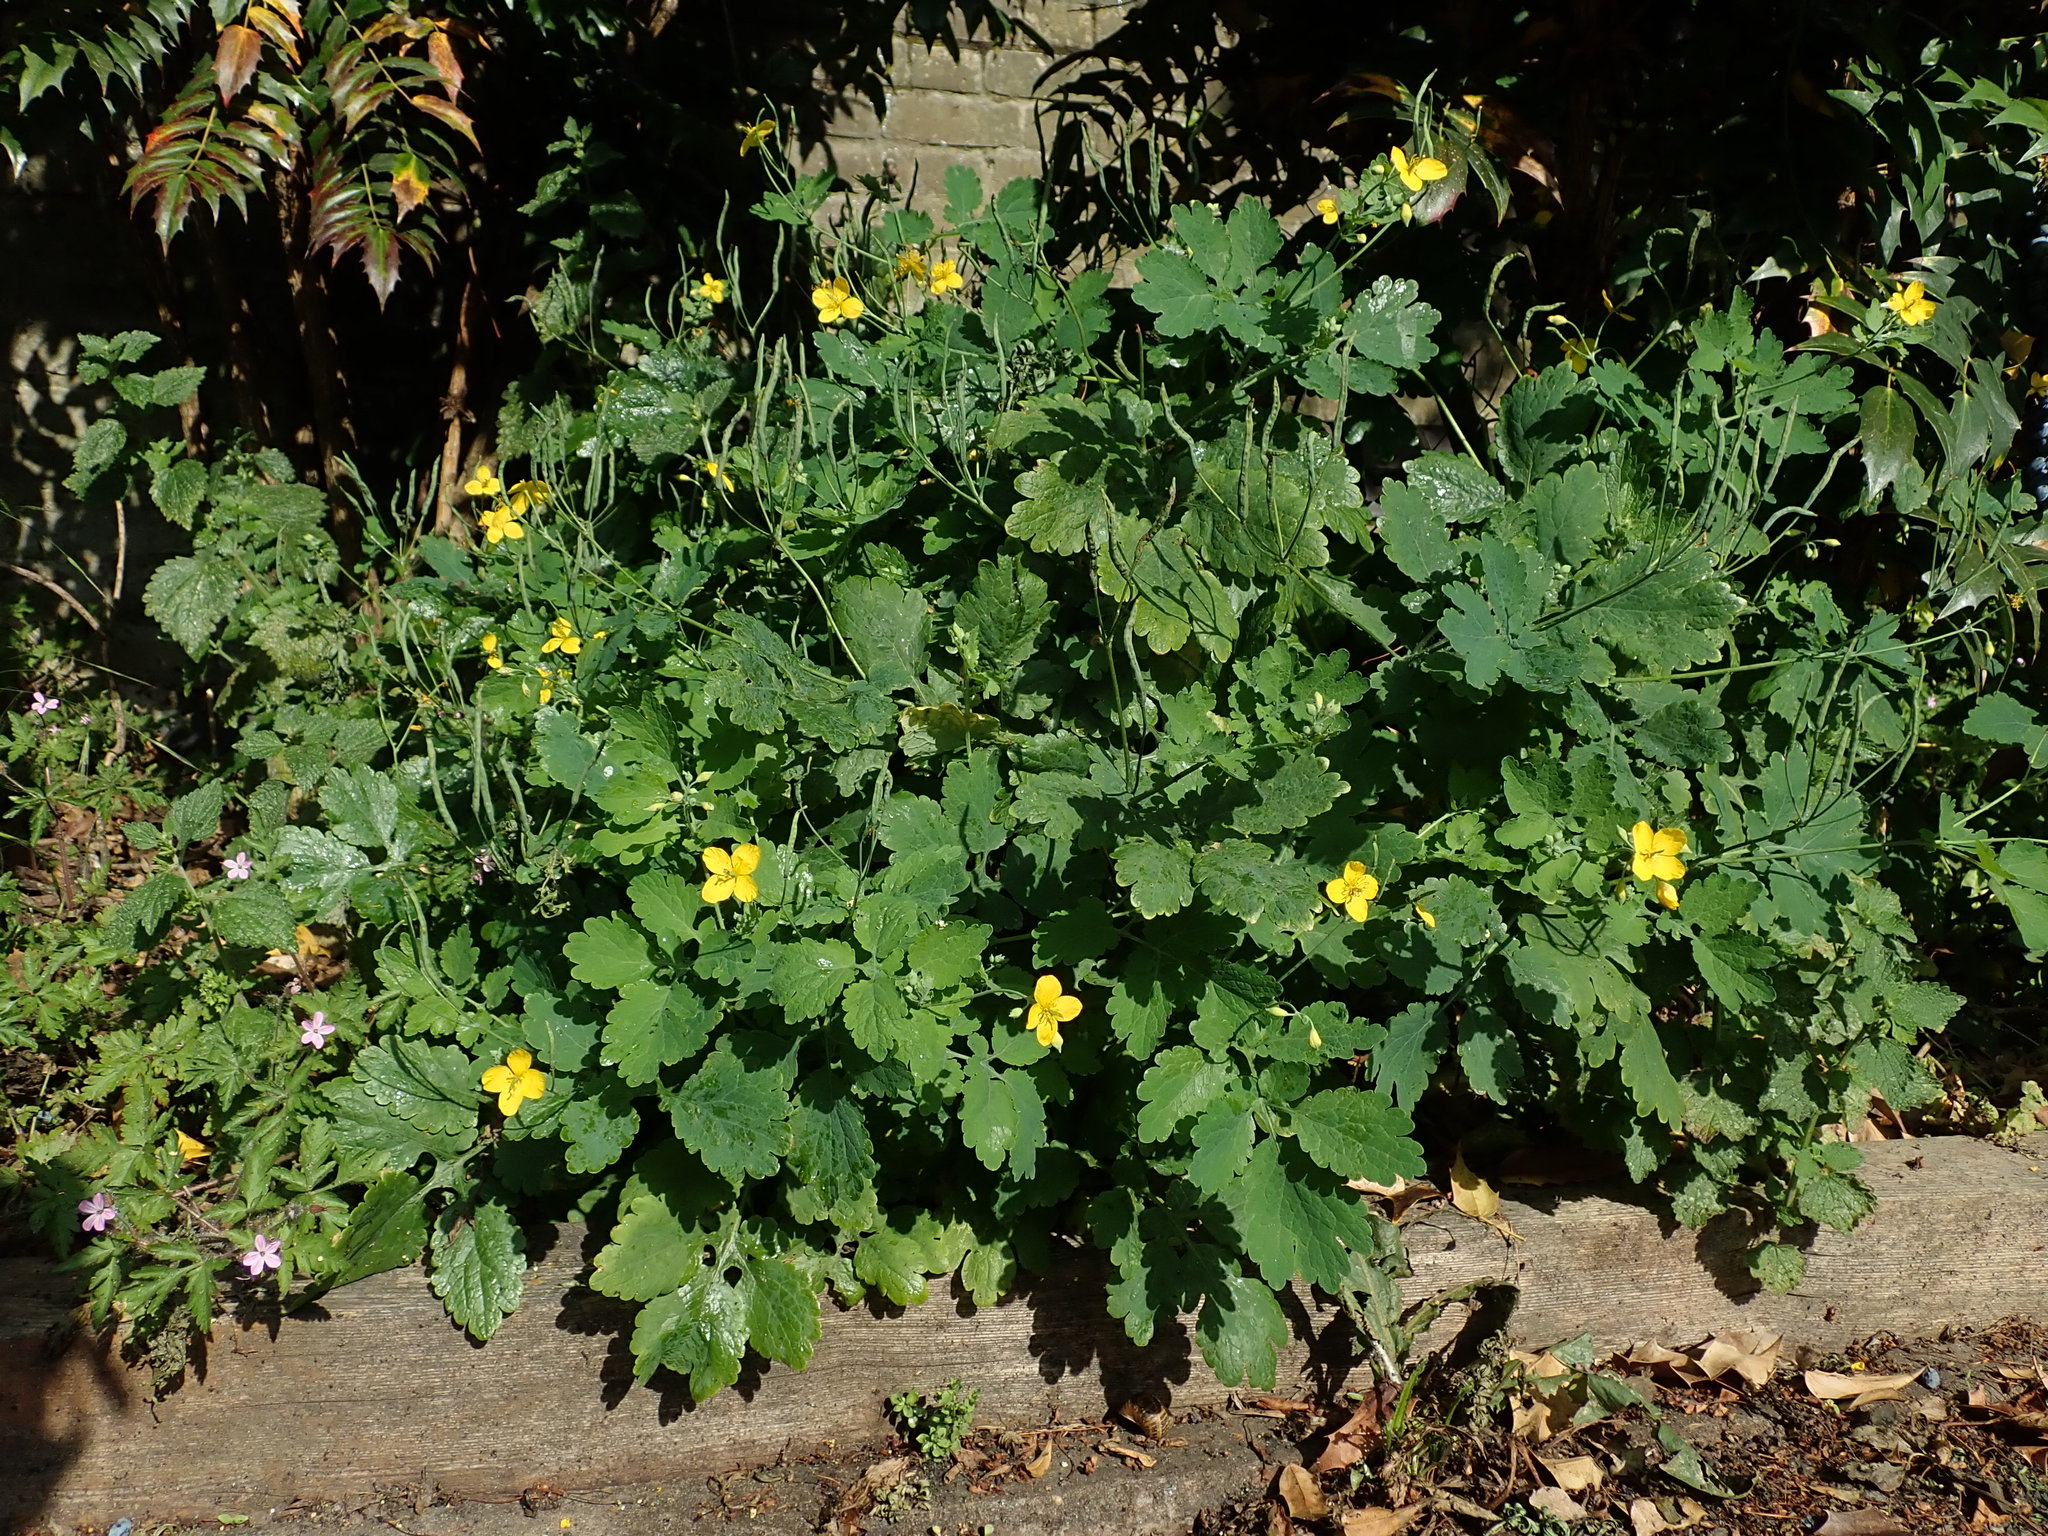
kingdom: Plantae
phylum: Tracheophyta
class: Magnoliopsida
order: Ranunculales
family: Papaveraceae
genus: Chelidonium
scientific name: Chelidonium majus
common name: Greater celandine
